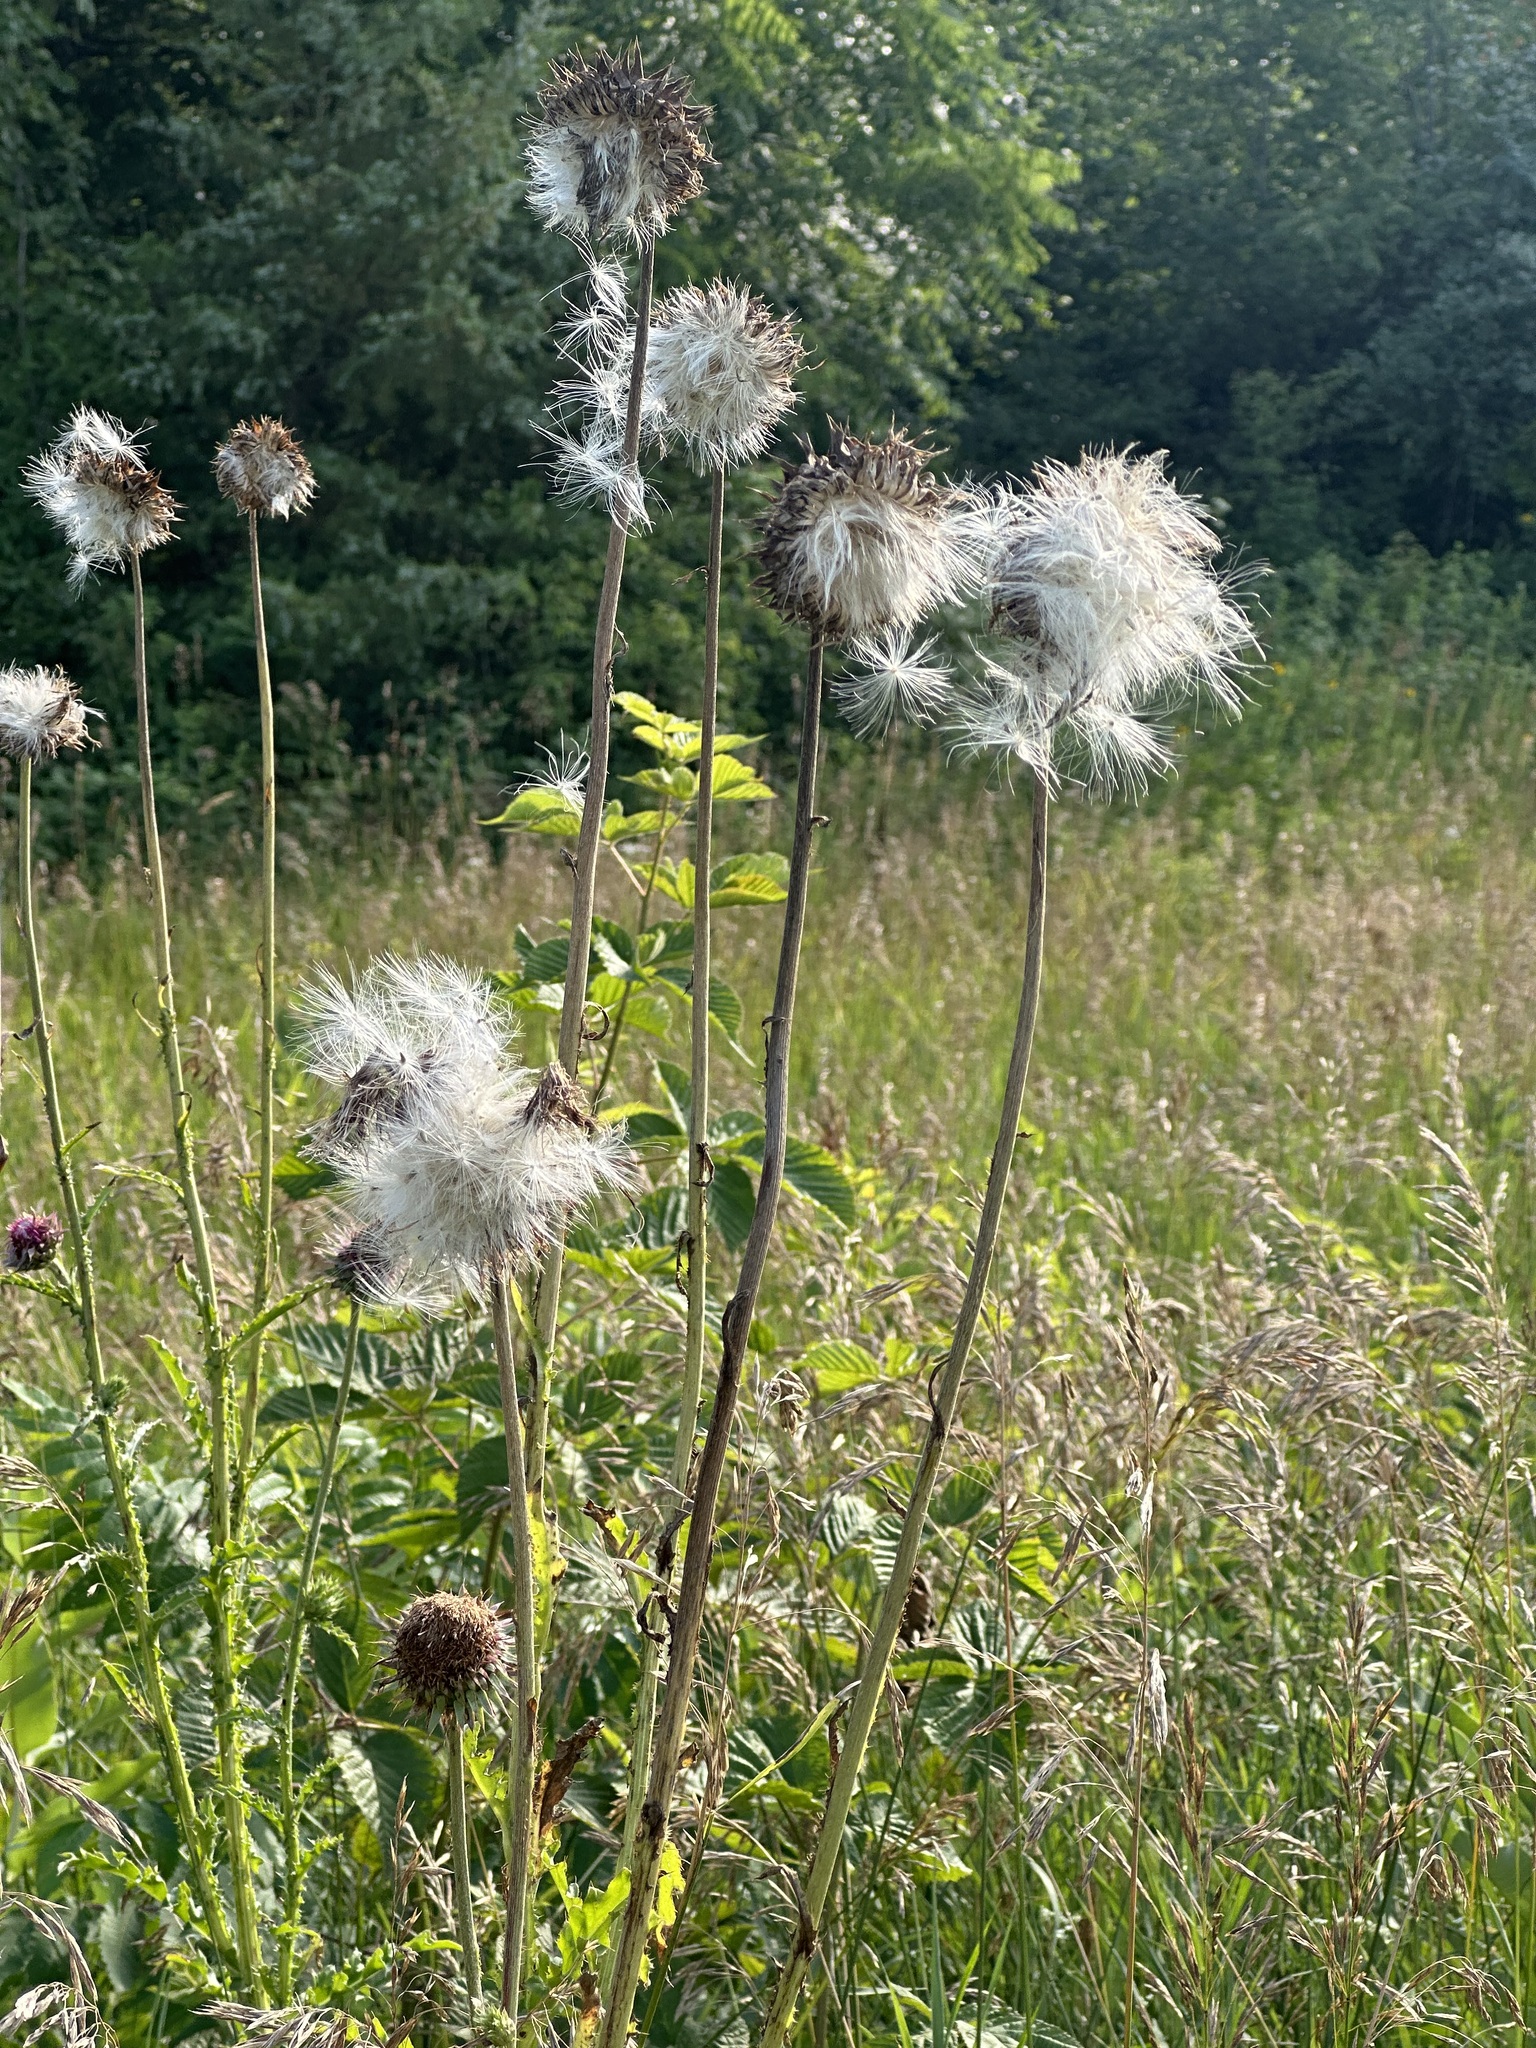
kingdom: Plantae
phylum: Tracheophyta
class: Magnoliopsida
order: Asterales
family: Asteraceae
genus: Carduus
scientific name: Carduus nutans
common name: Musk thistle
